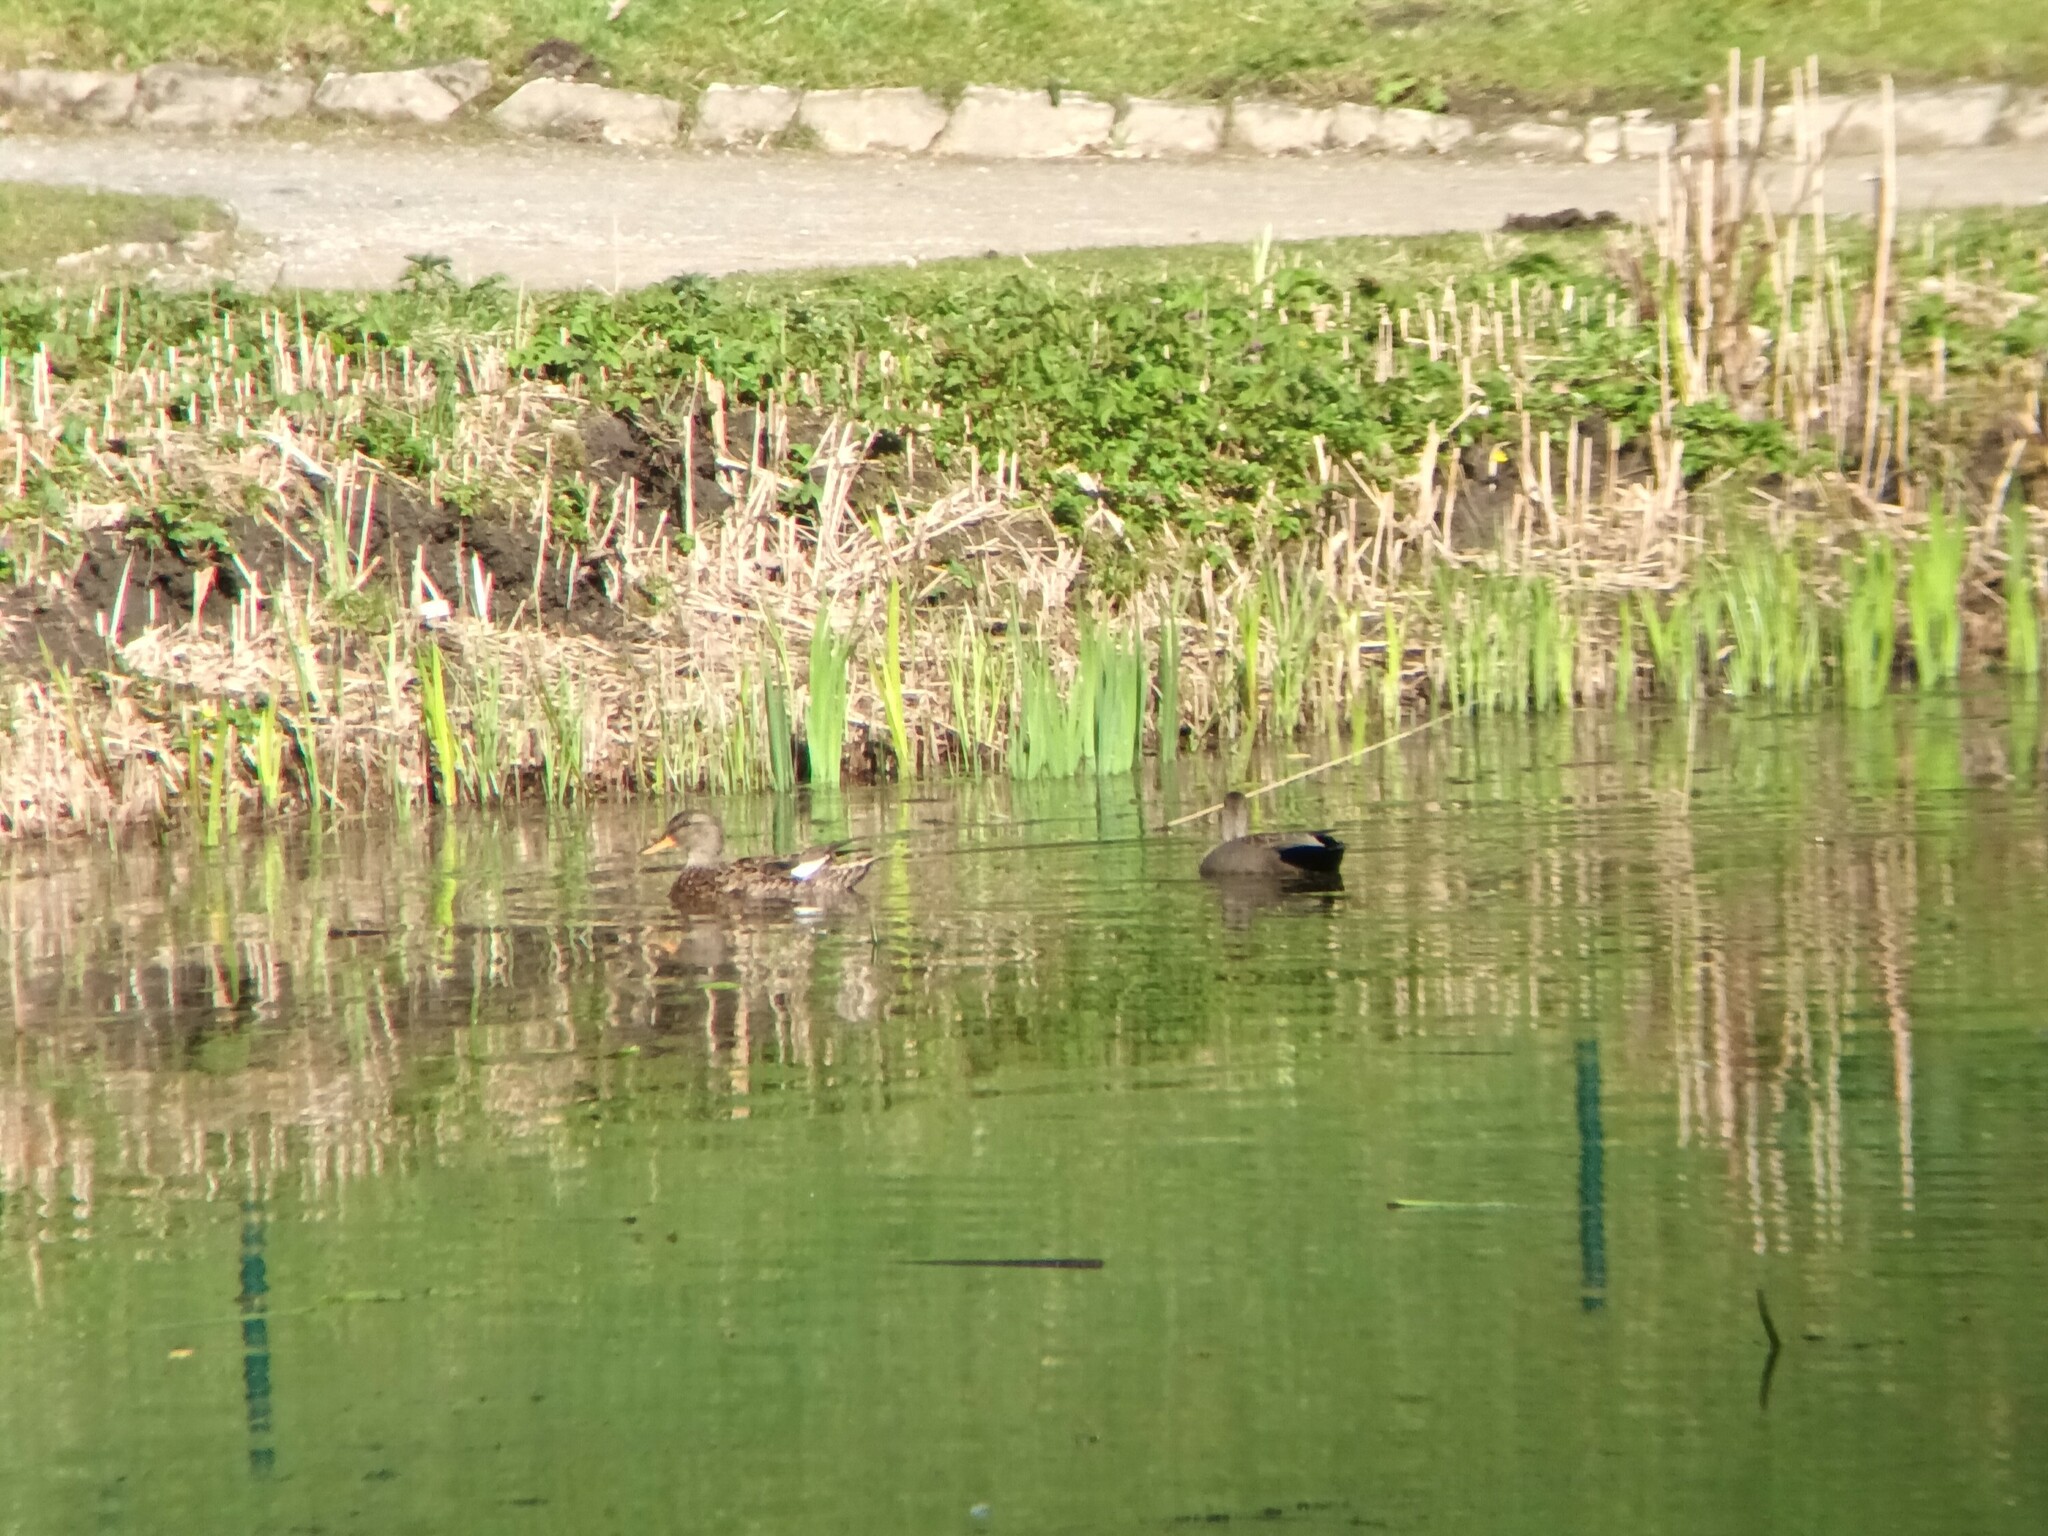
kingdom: Animalia
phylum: Chordata
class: Aves
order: Anseriformes
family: Anatidae
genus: Mareca
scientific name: Mareca strepera
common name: Gadwall
